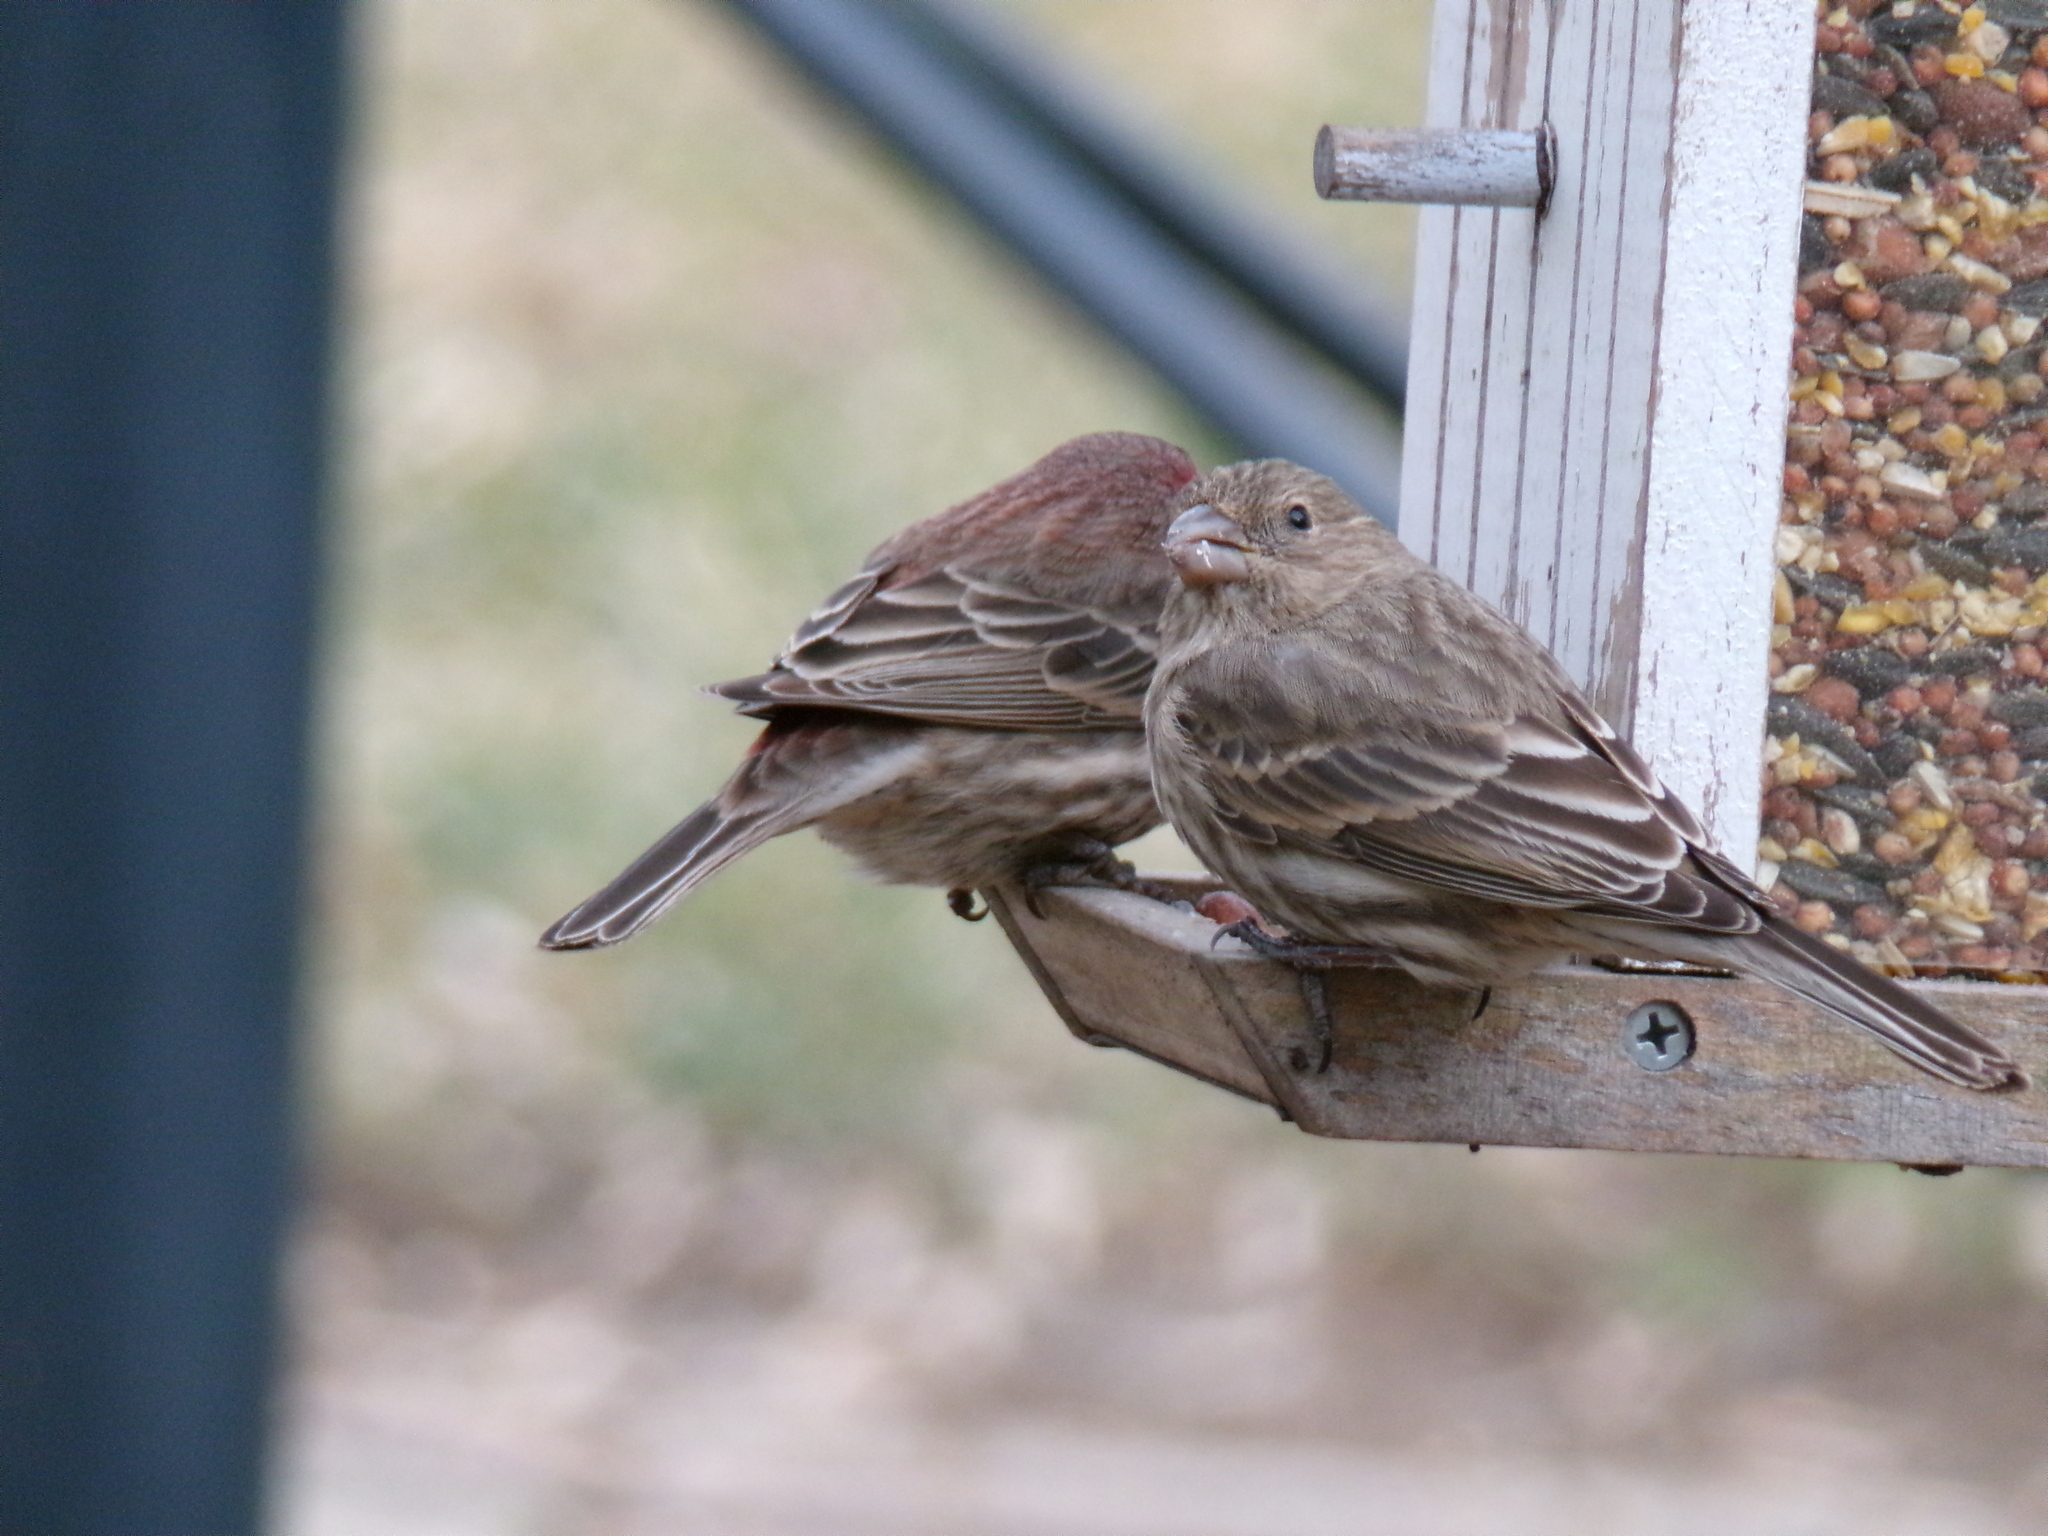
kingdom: Animalia
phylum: Chordata
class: Aves
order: Passeriformes
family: Fringillidae
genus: Haemorhous
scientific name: Haemorhous mexicanus
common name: House finch
